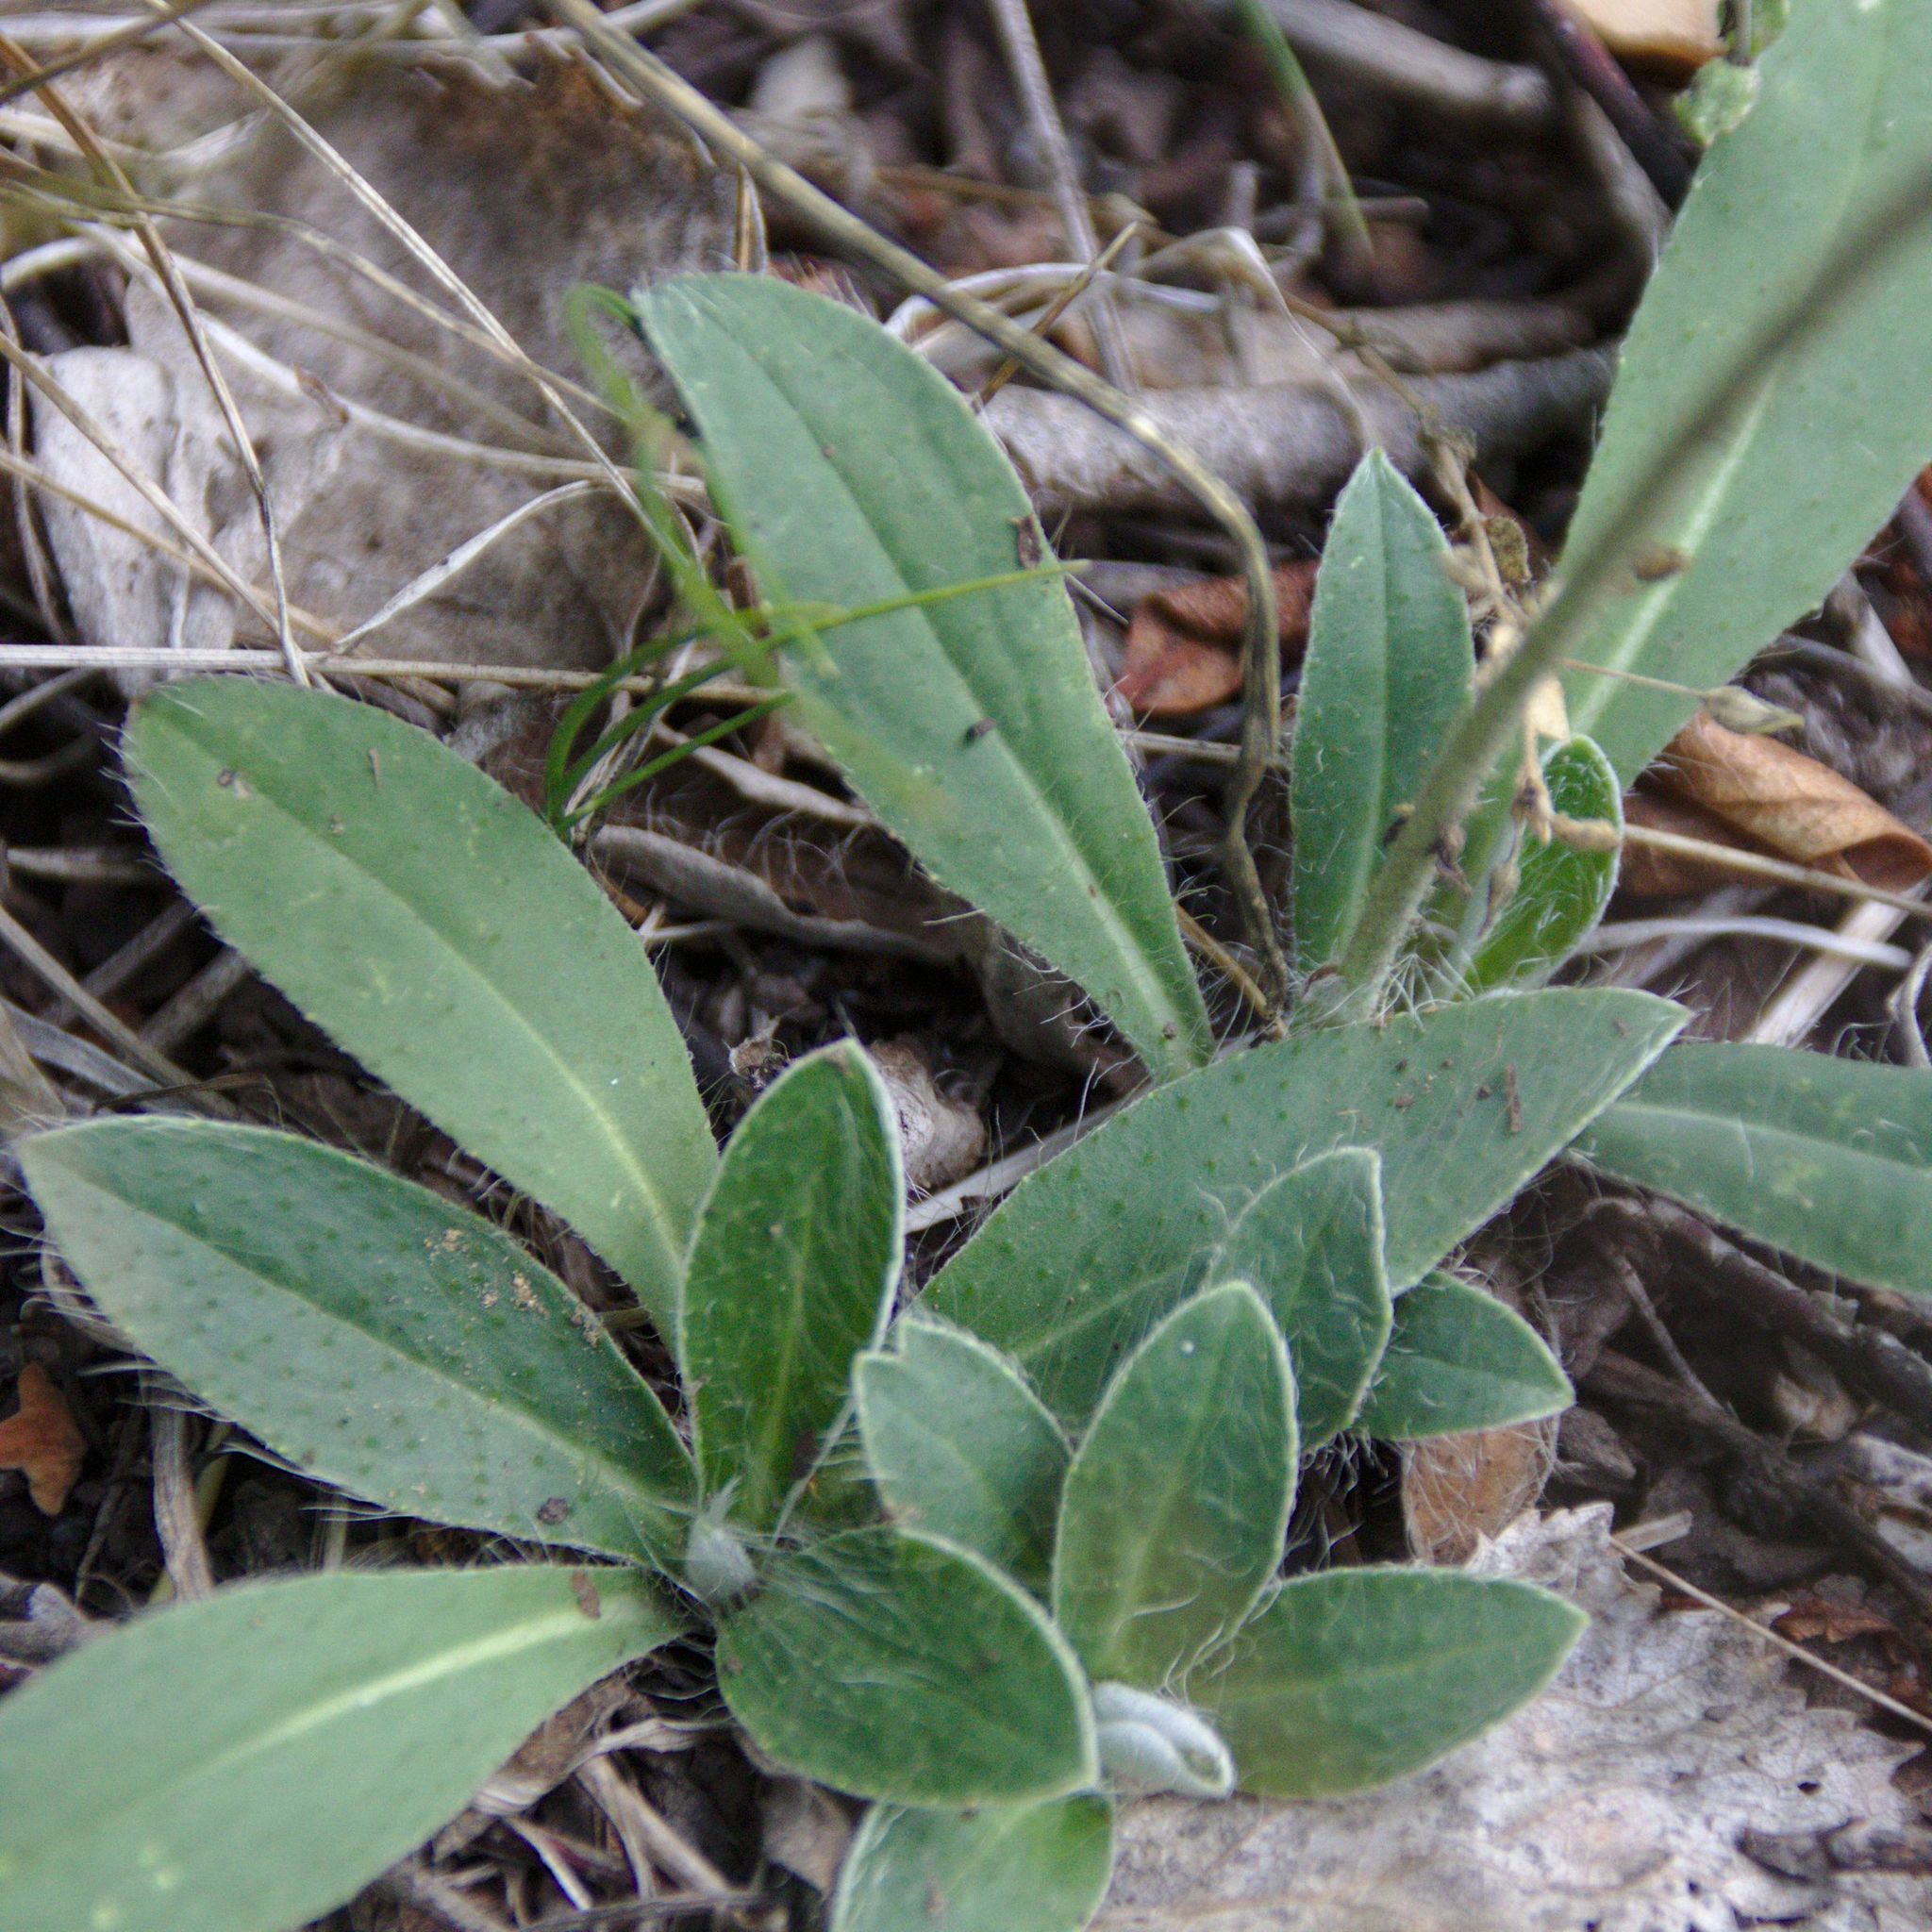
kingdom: Plantae
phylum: Tracheophyta
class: Magnoliopsida
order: Asterales
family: Asteraceae
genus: Pilosella
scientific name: Pilosella officinarum
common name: Mouse-ear hawkweed
